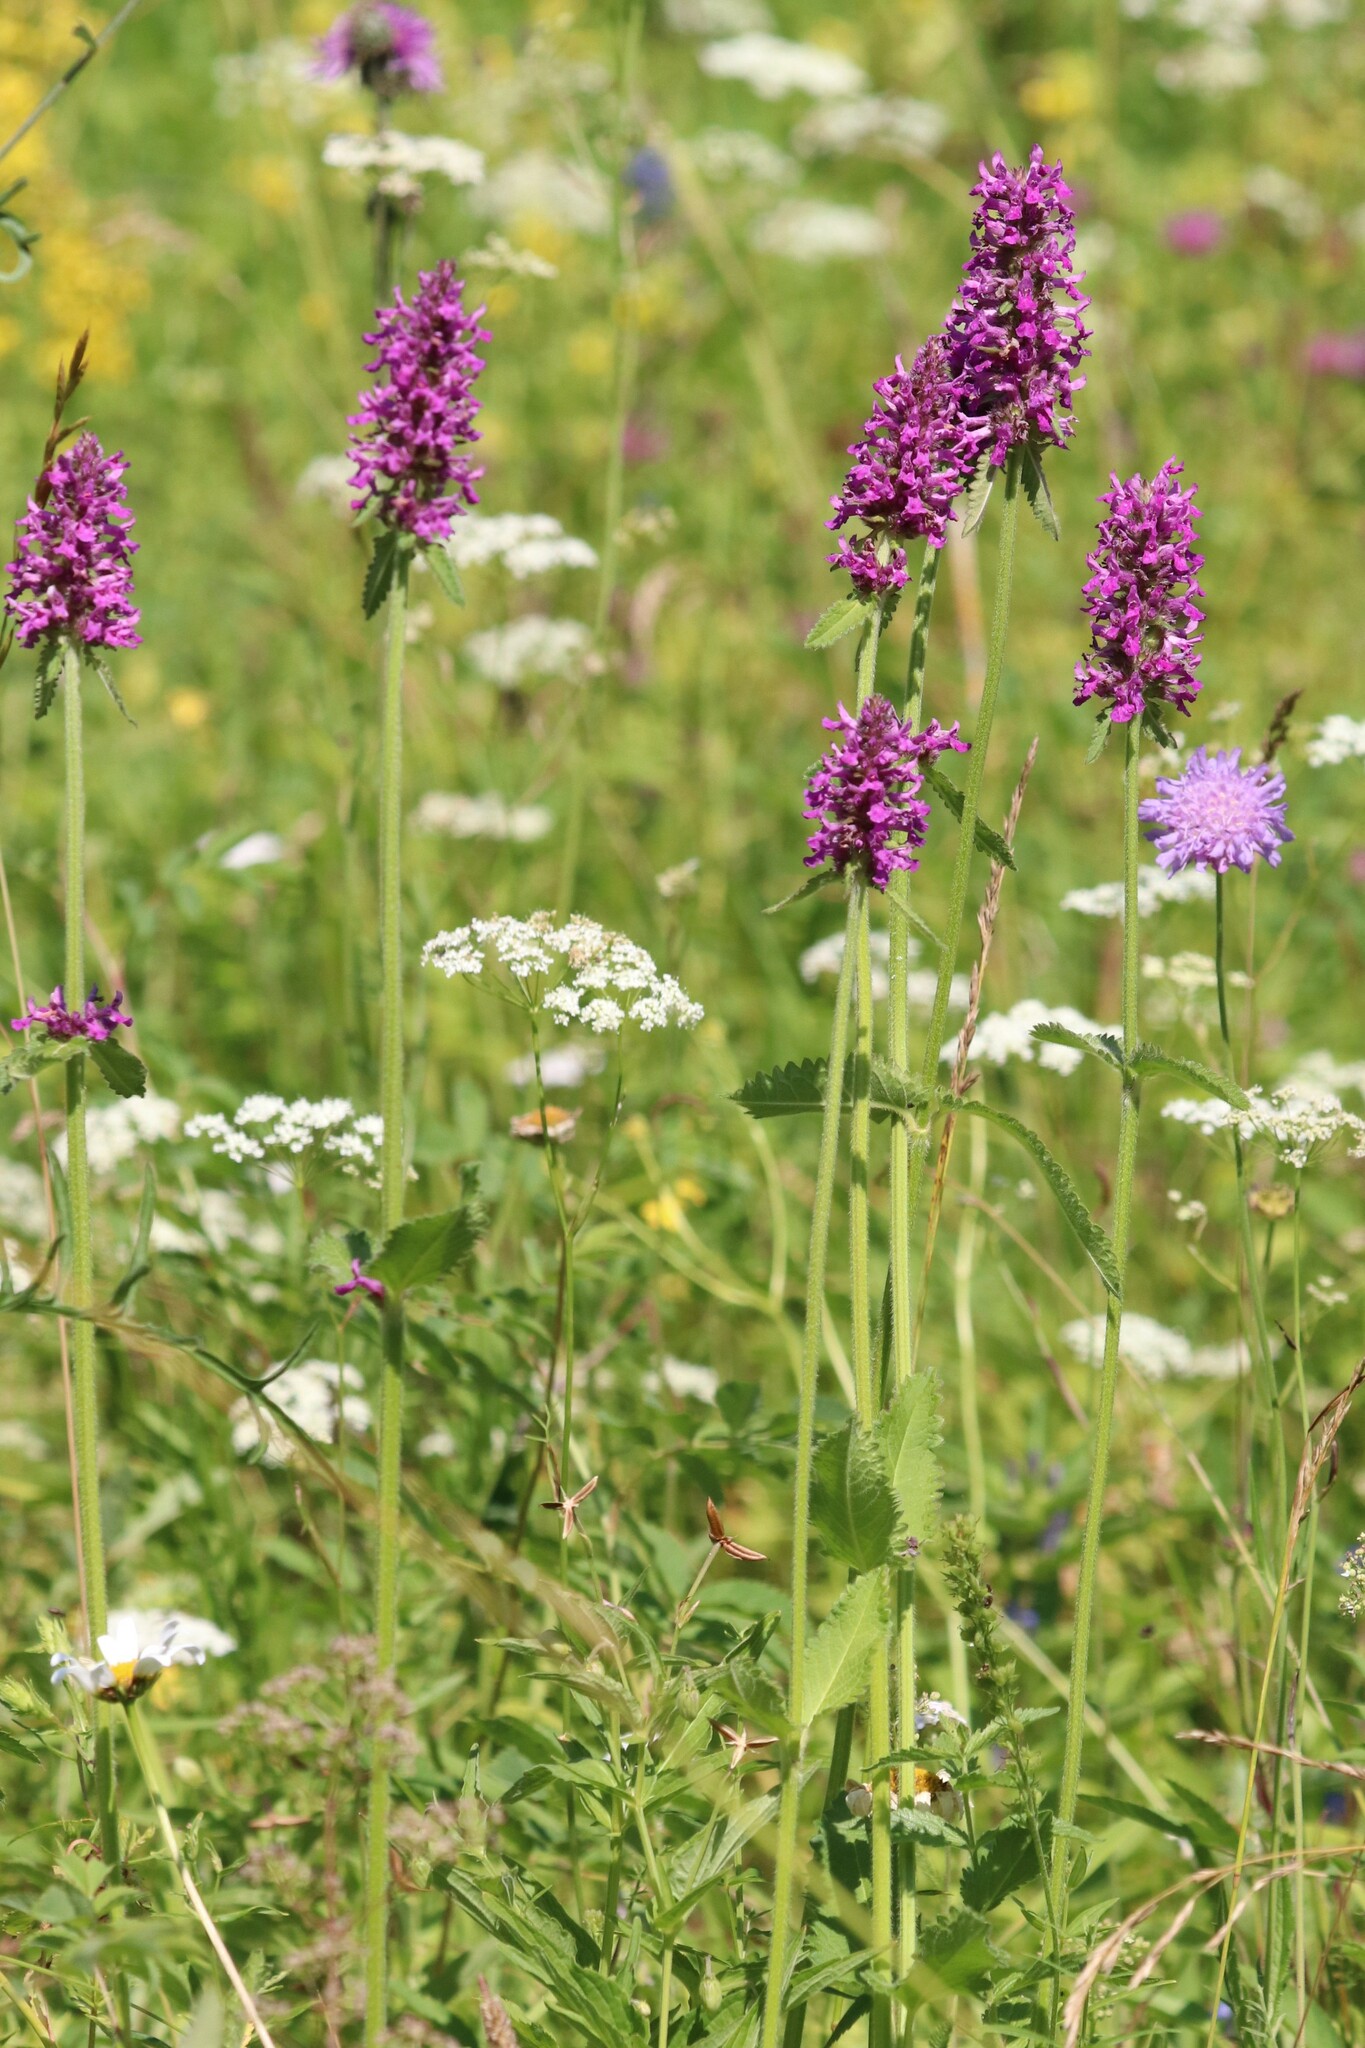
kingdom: Plantae
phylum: Tracheophyta
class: Magnoliopsida
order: Lamiales
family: Lamiaceae
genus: Betonica
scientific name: Betonica officinalis
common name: Bishop's-wort
